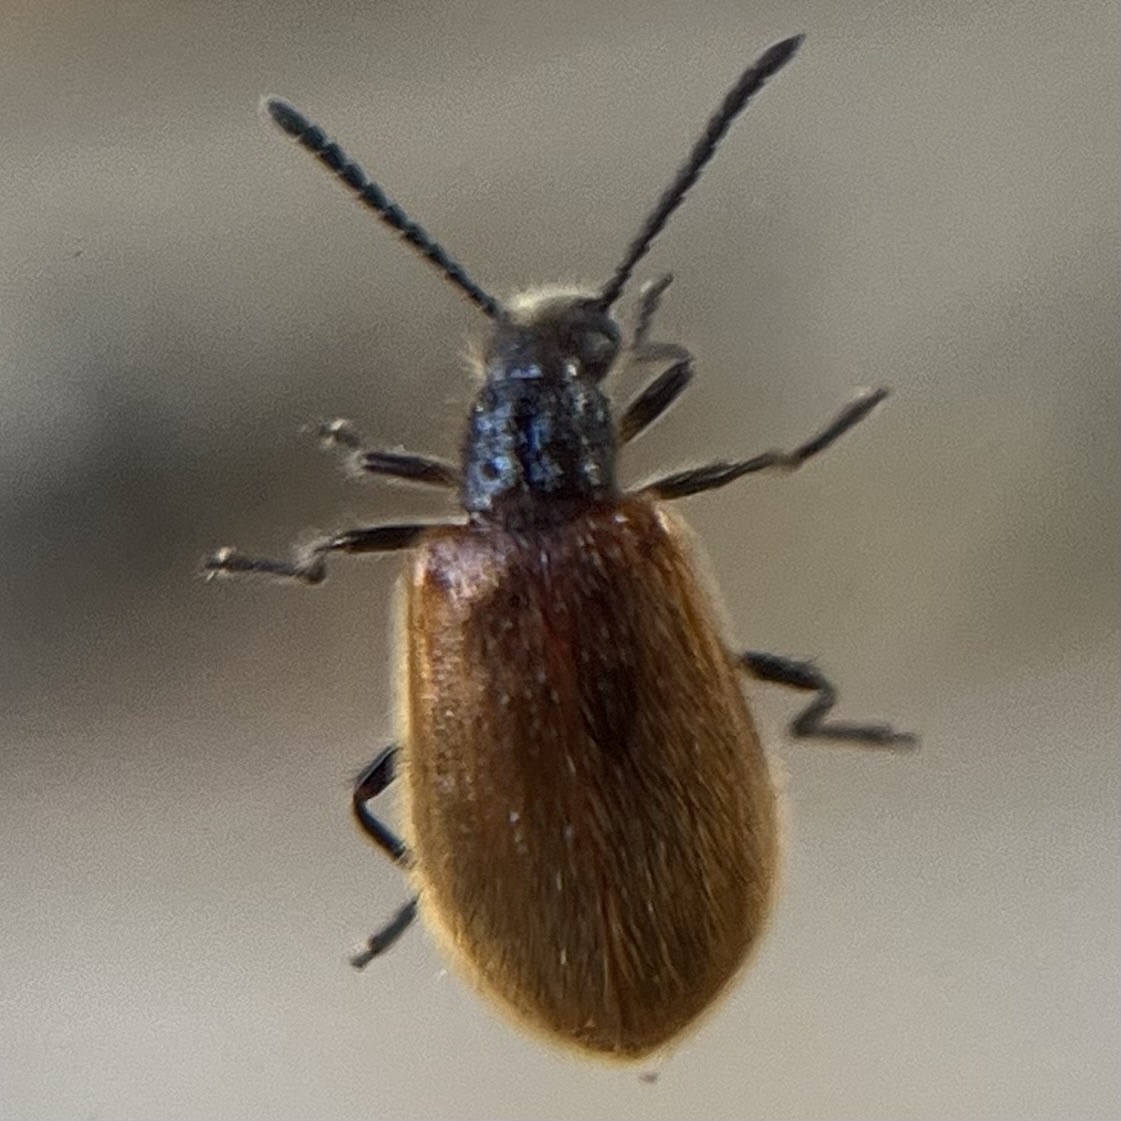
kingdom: Animalia
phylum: Arthropoda
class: Insecta
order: Coleoptera
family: Tenebrionidae
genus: Lagria
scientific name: Lagria hirta
